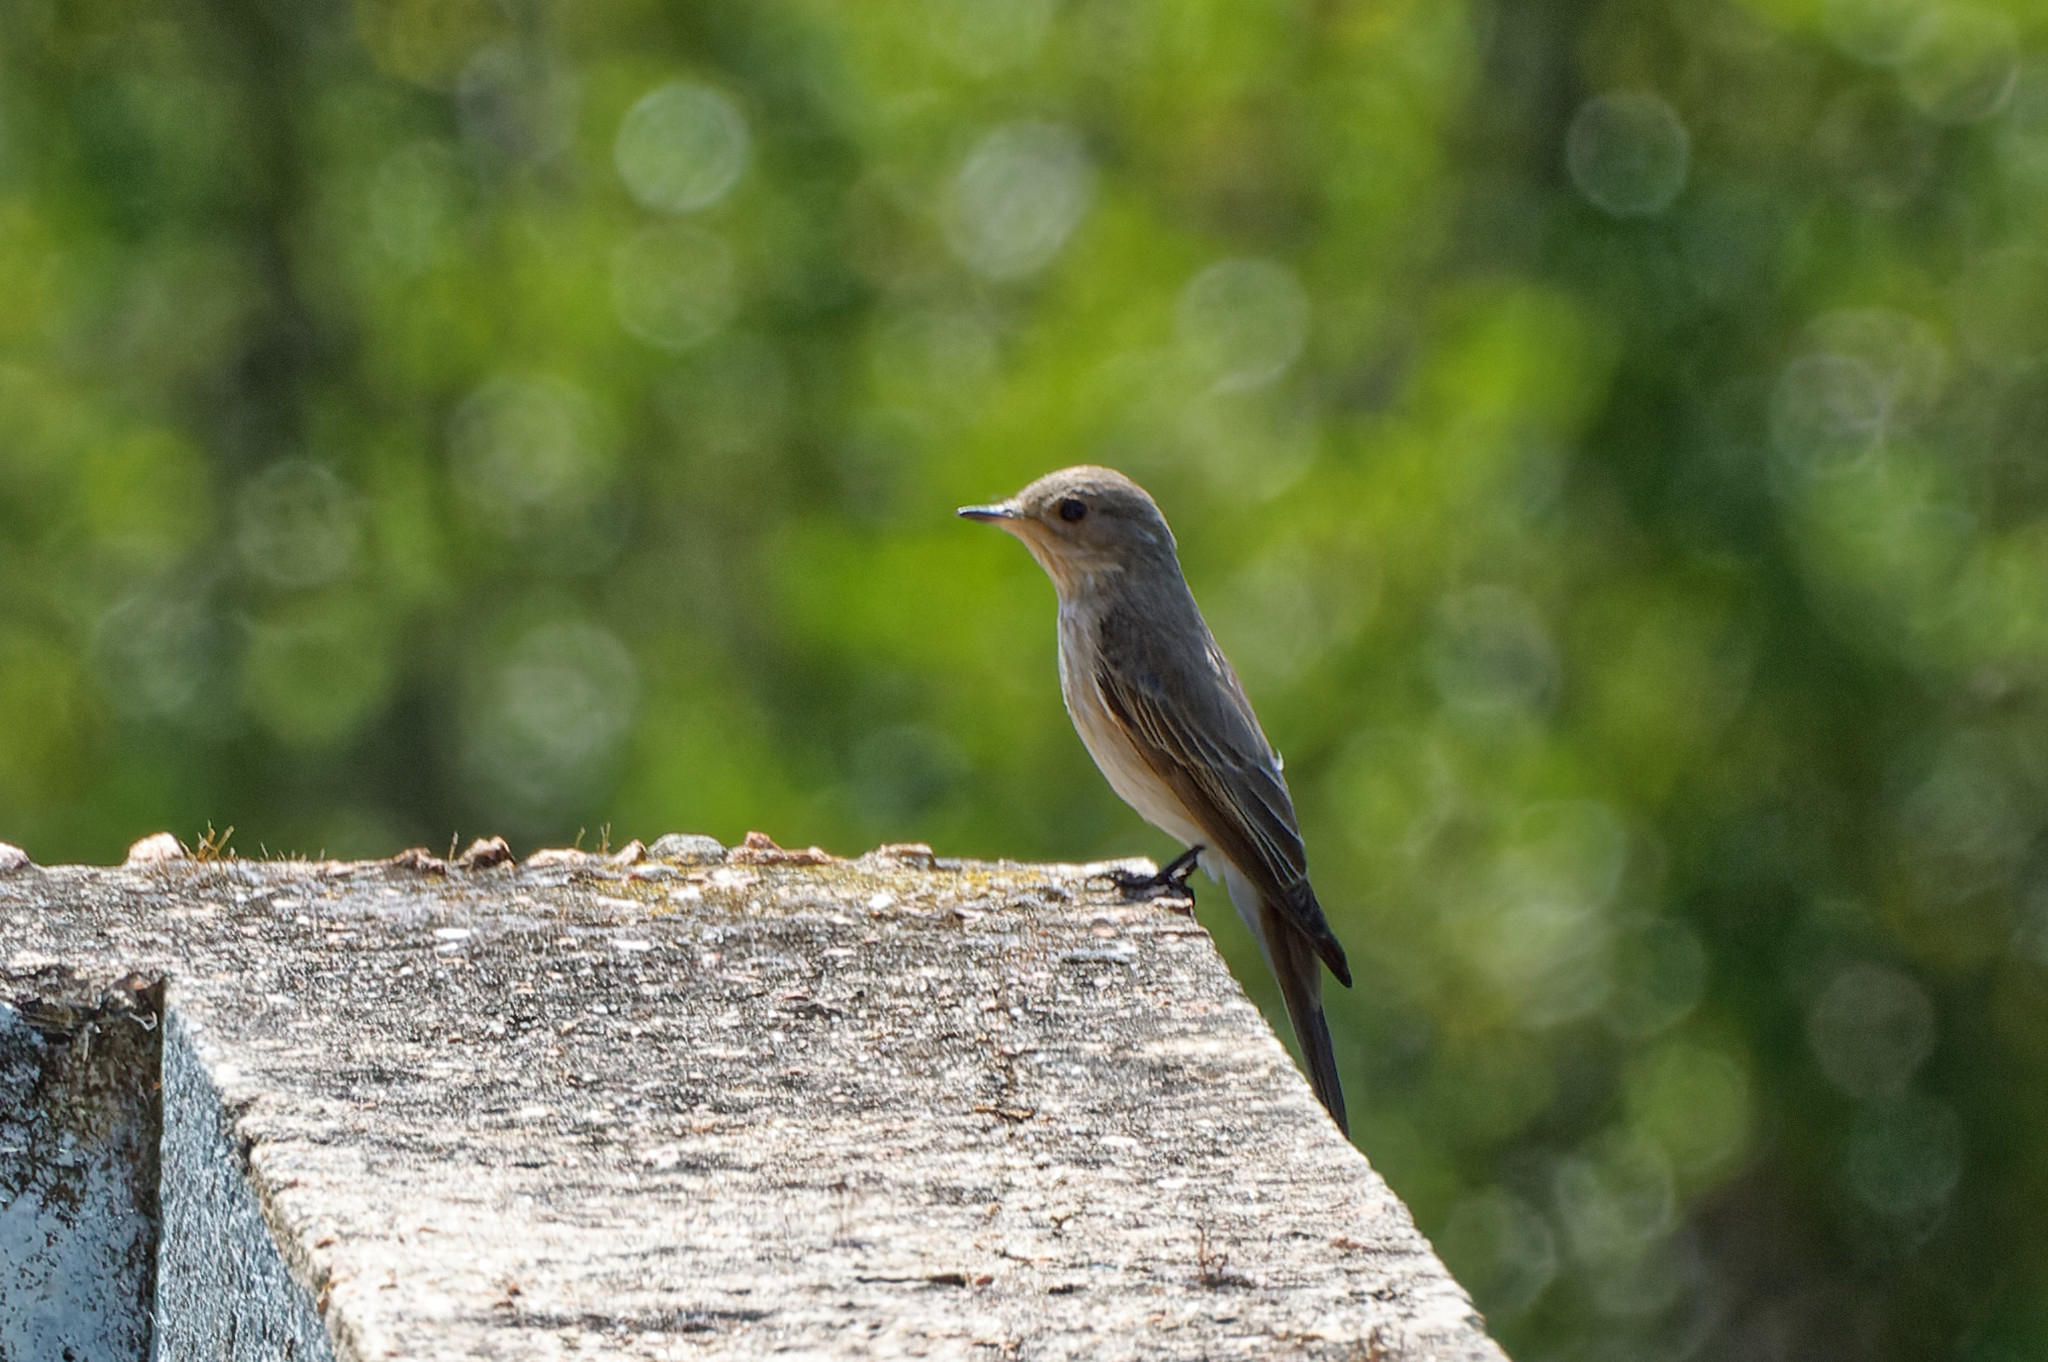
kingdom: Animalia
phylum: Chordata
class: Aves
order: Passeriformes
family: Muscicapidae
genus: Muscicapa
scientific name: Muscicapa striata
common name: Spotted flycatcher
